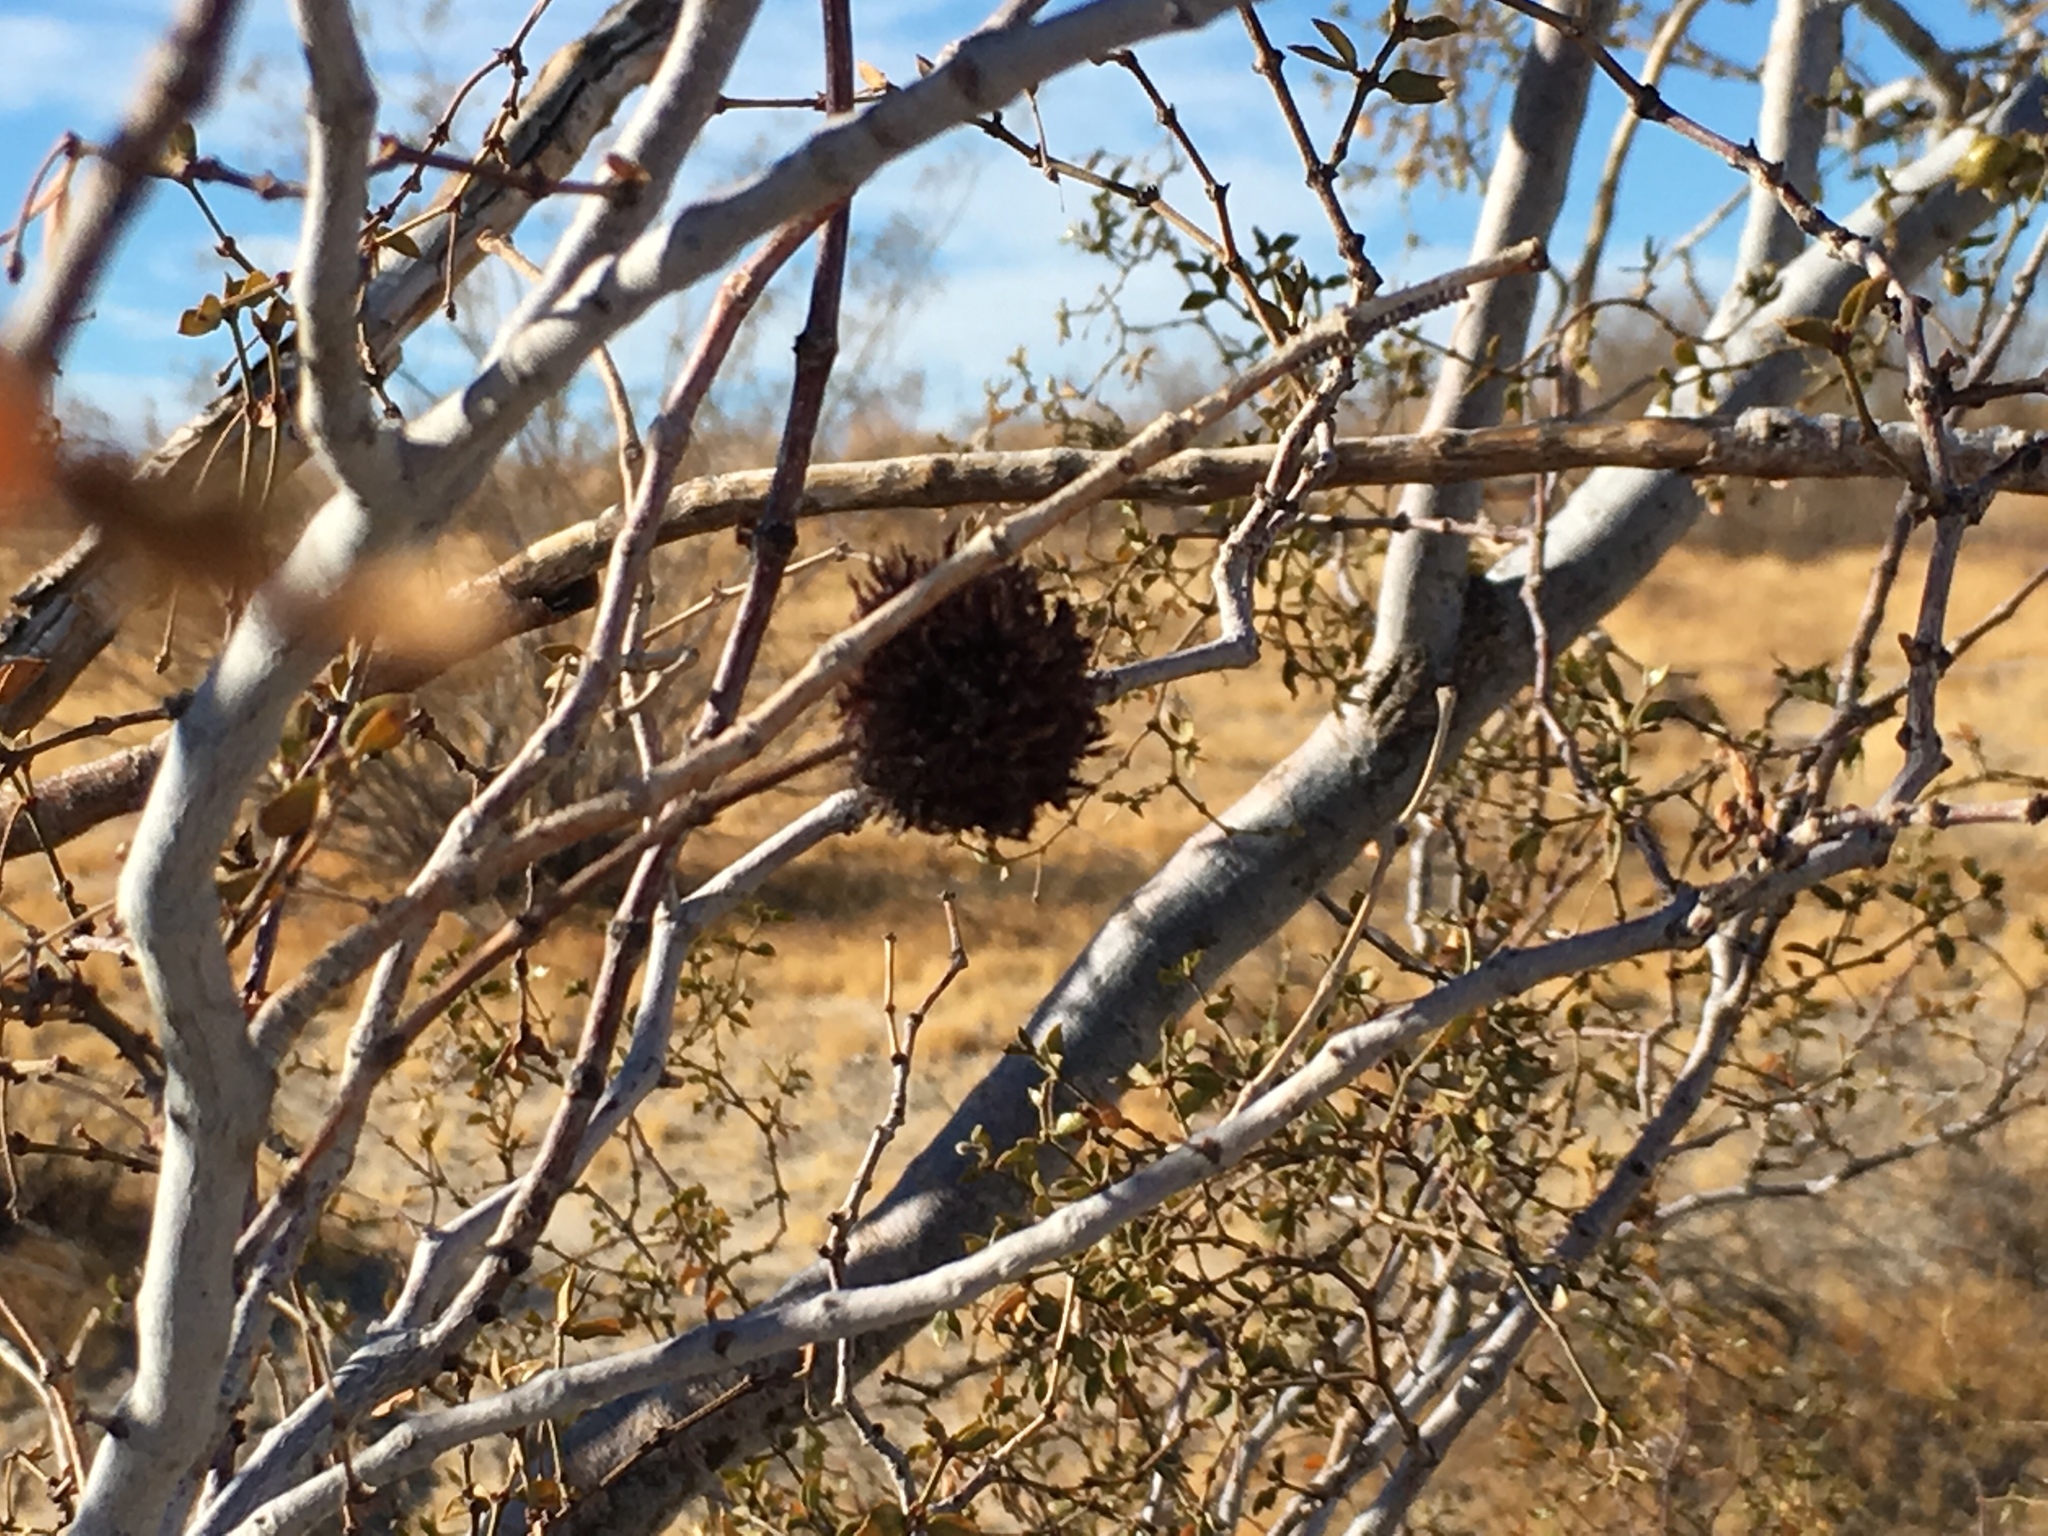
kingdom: Animalia
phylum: Arthropoda
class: Insecta
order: Diptera
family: Cecidomyiidae
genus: Asphondylia
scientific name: Asphondylia auripila
